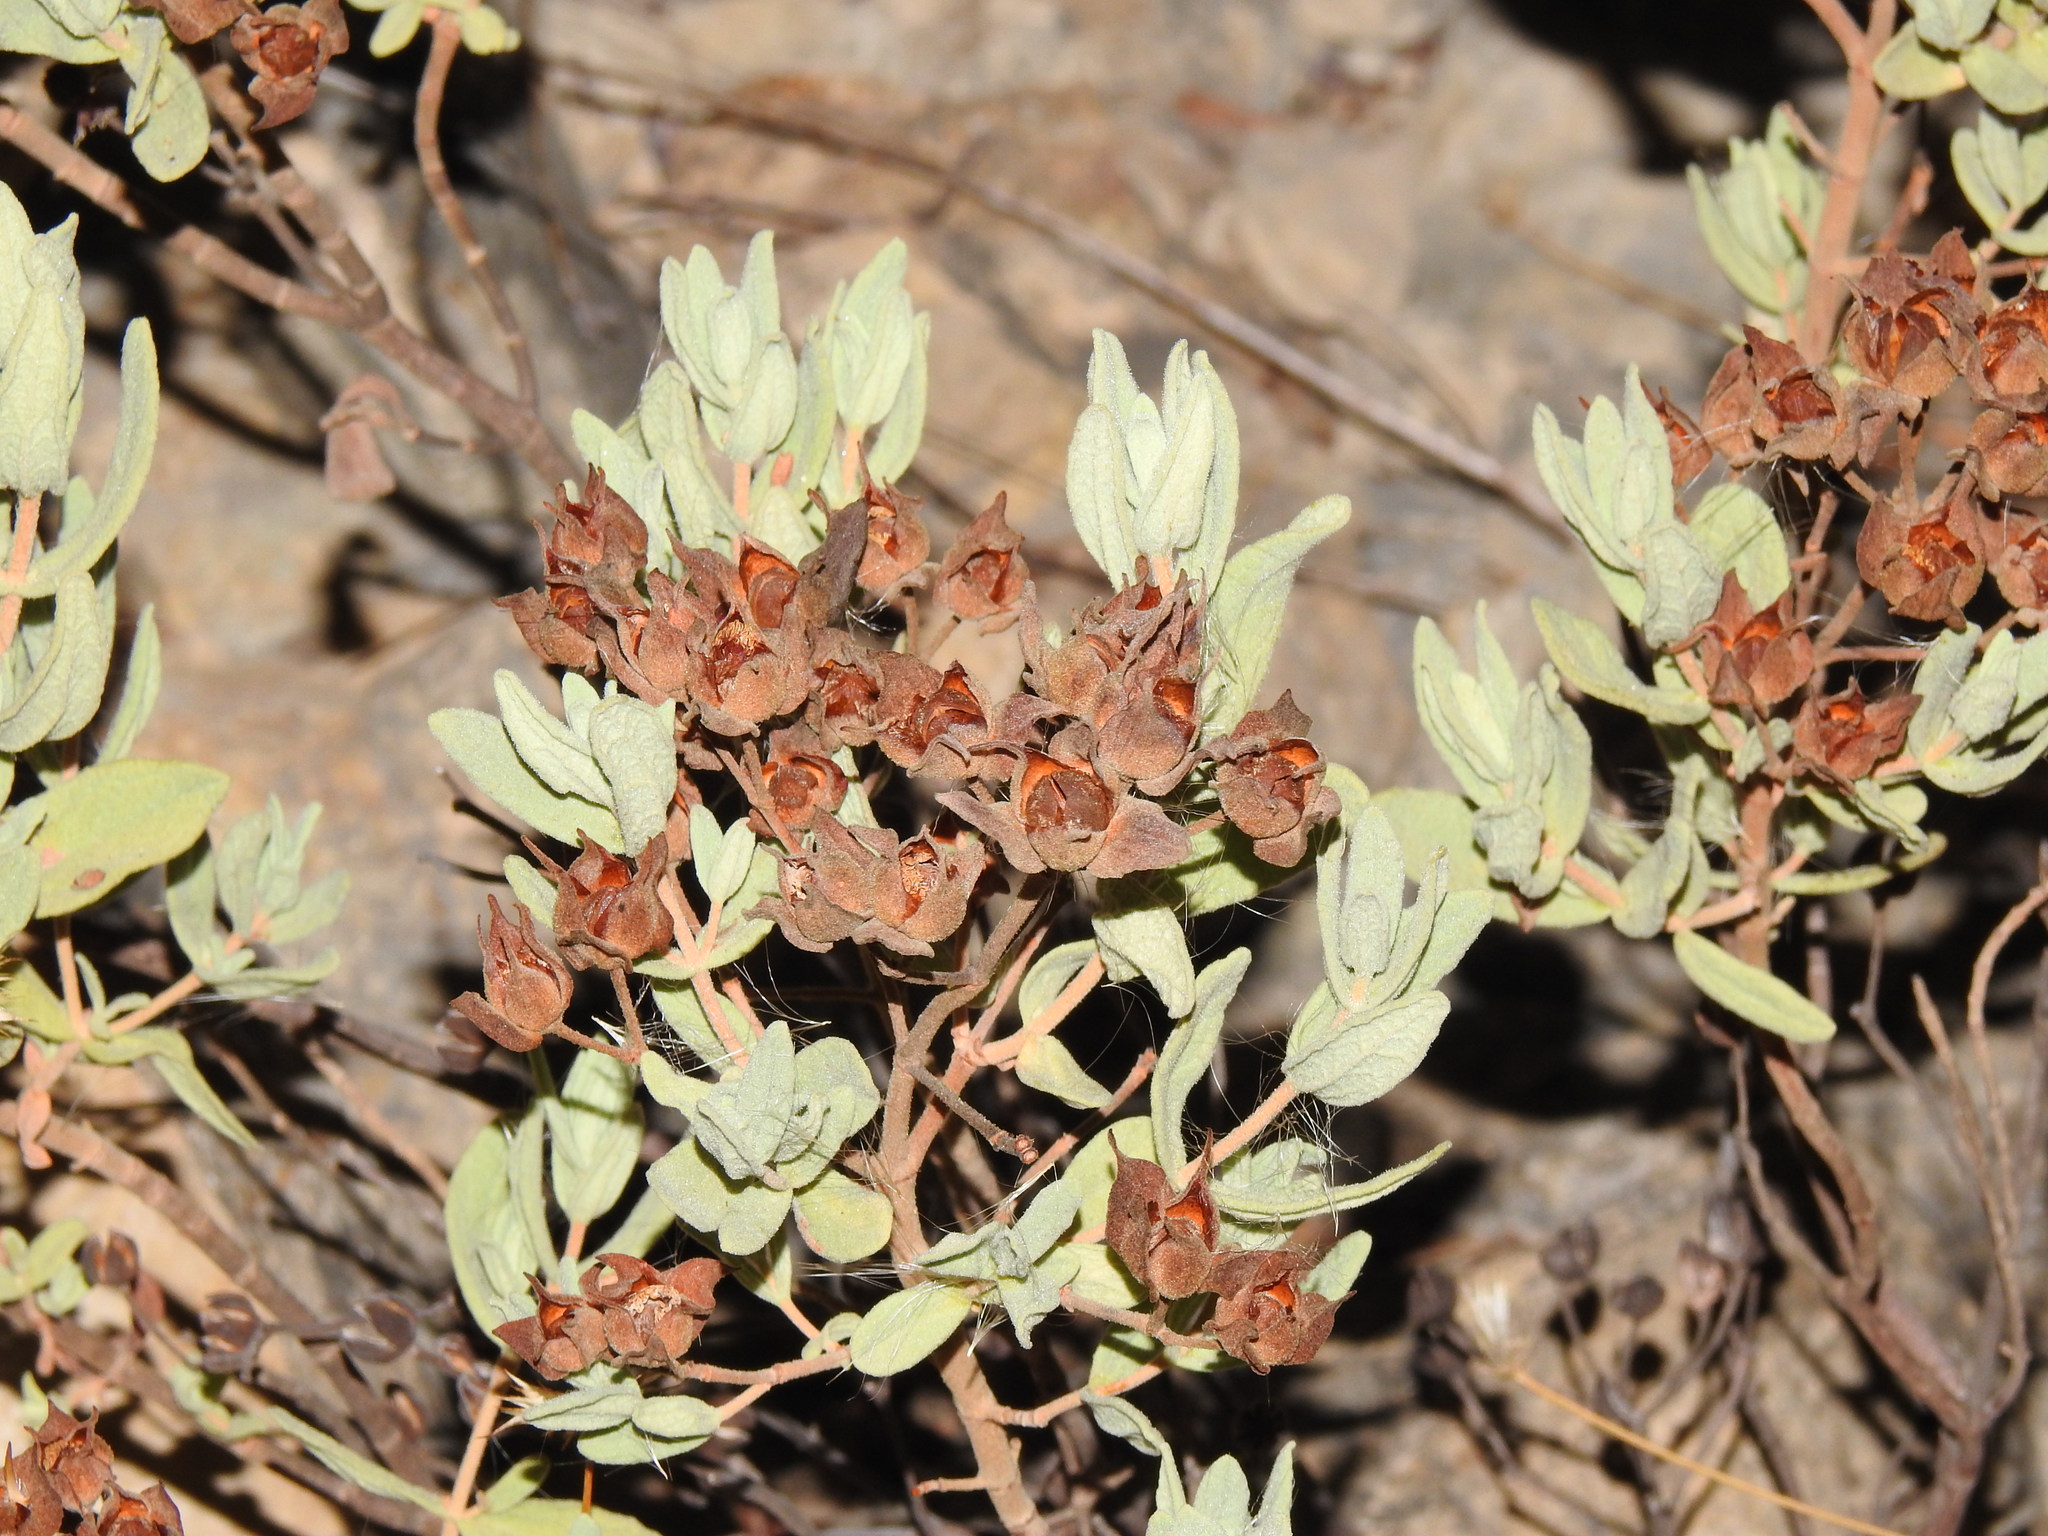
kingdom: Plantae
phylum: Tracheophyta
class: Magnoliopsida
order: Malvales
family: Cistaceae
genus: Cistus
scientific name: Cistus albidus
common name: White-leaf rock-rose
